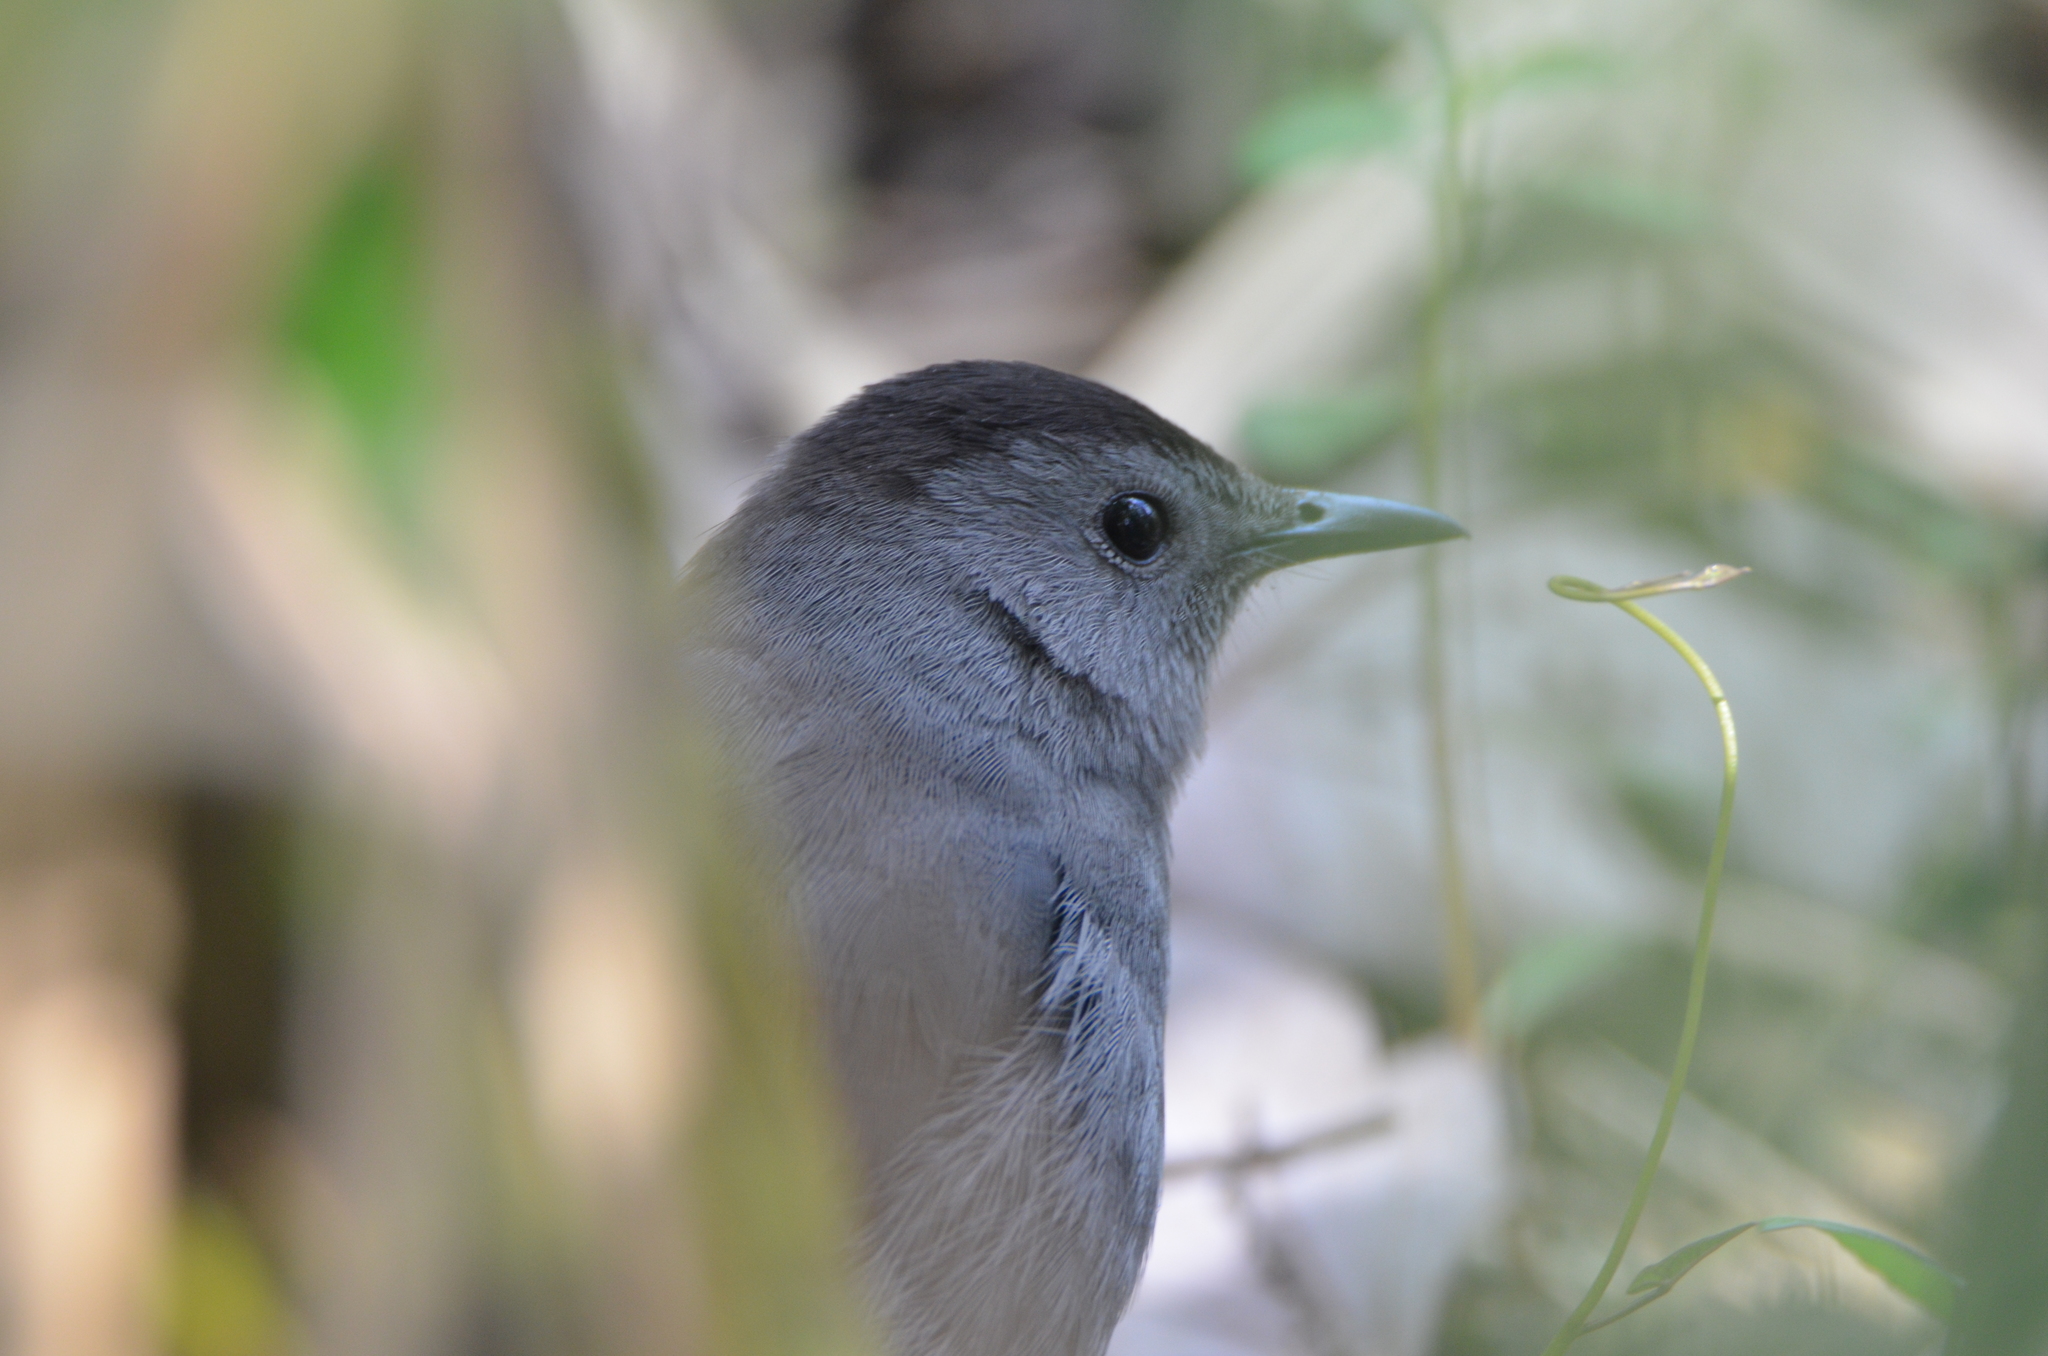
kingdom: Animalia
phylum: Chordata
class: Aves
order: Passeriformes
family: Mimidae
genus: Dumetella
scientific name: Dumetella carolinensis
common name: Gray catbird
